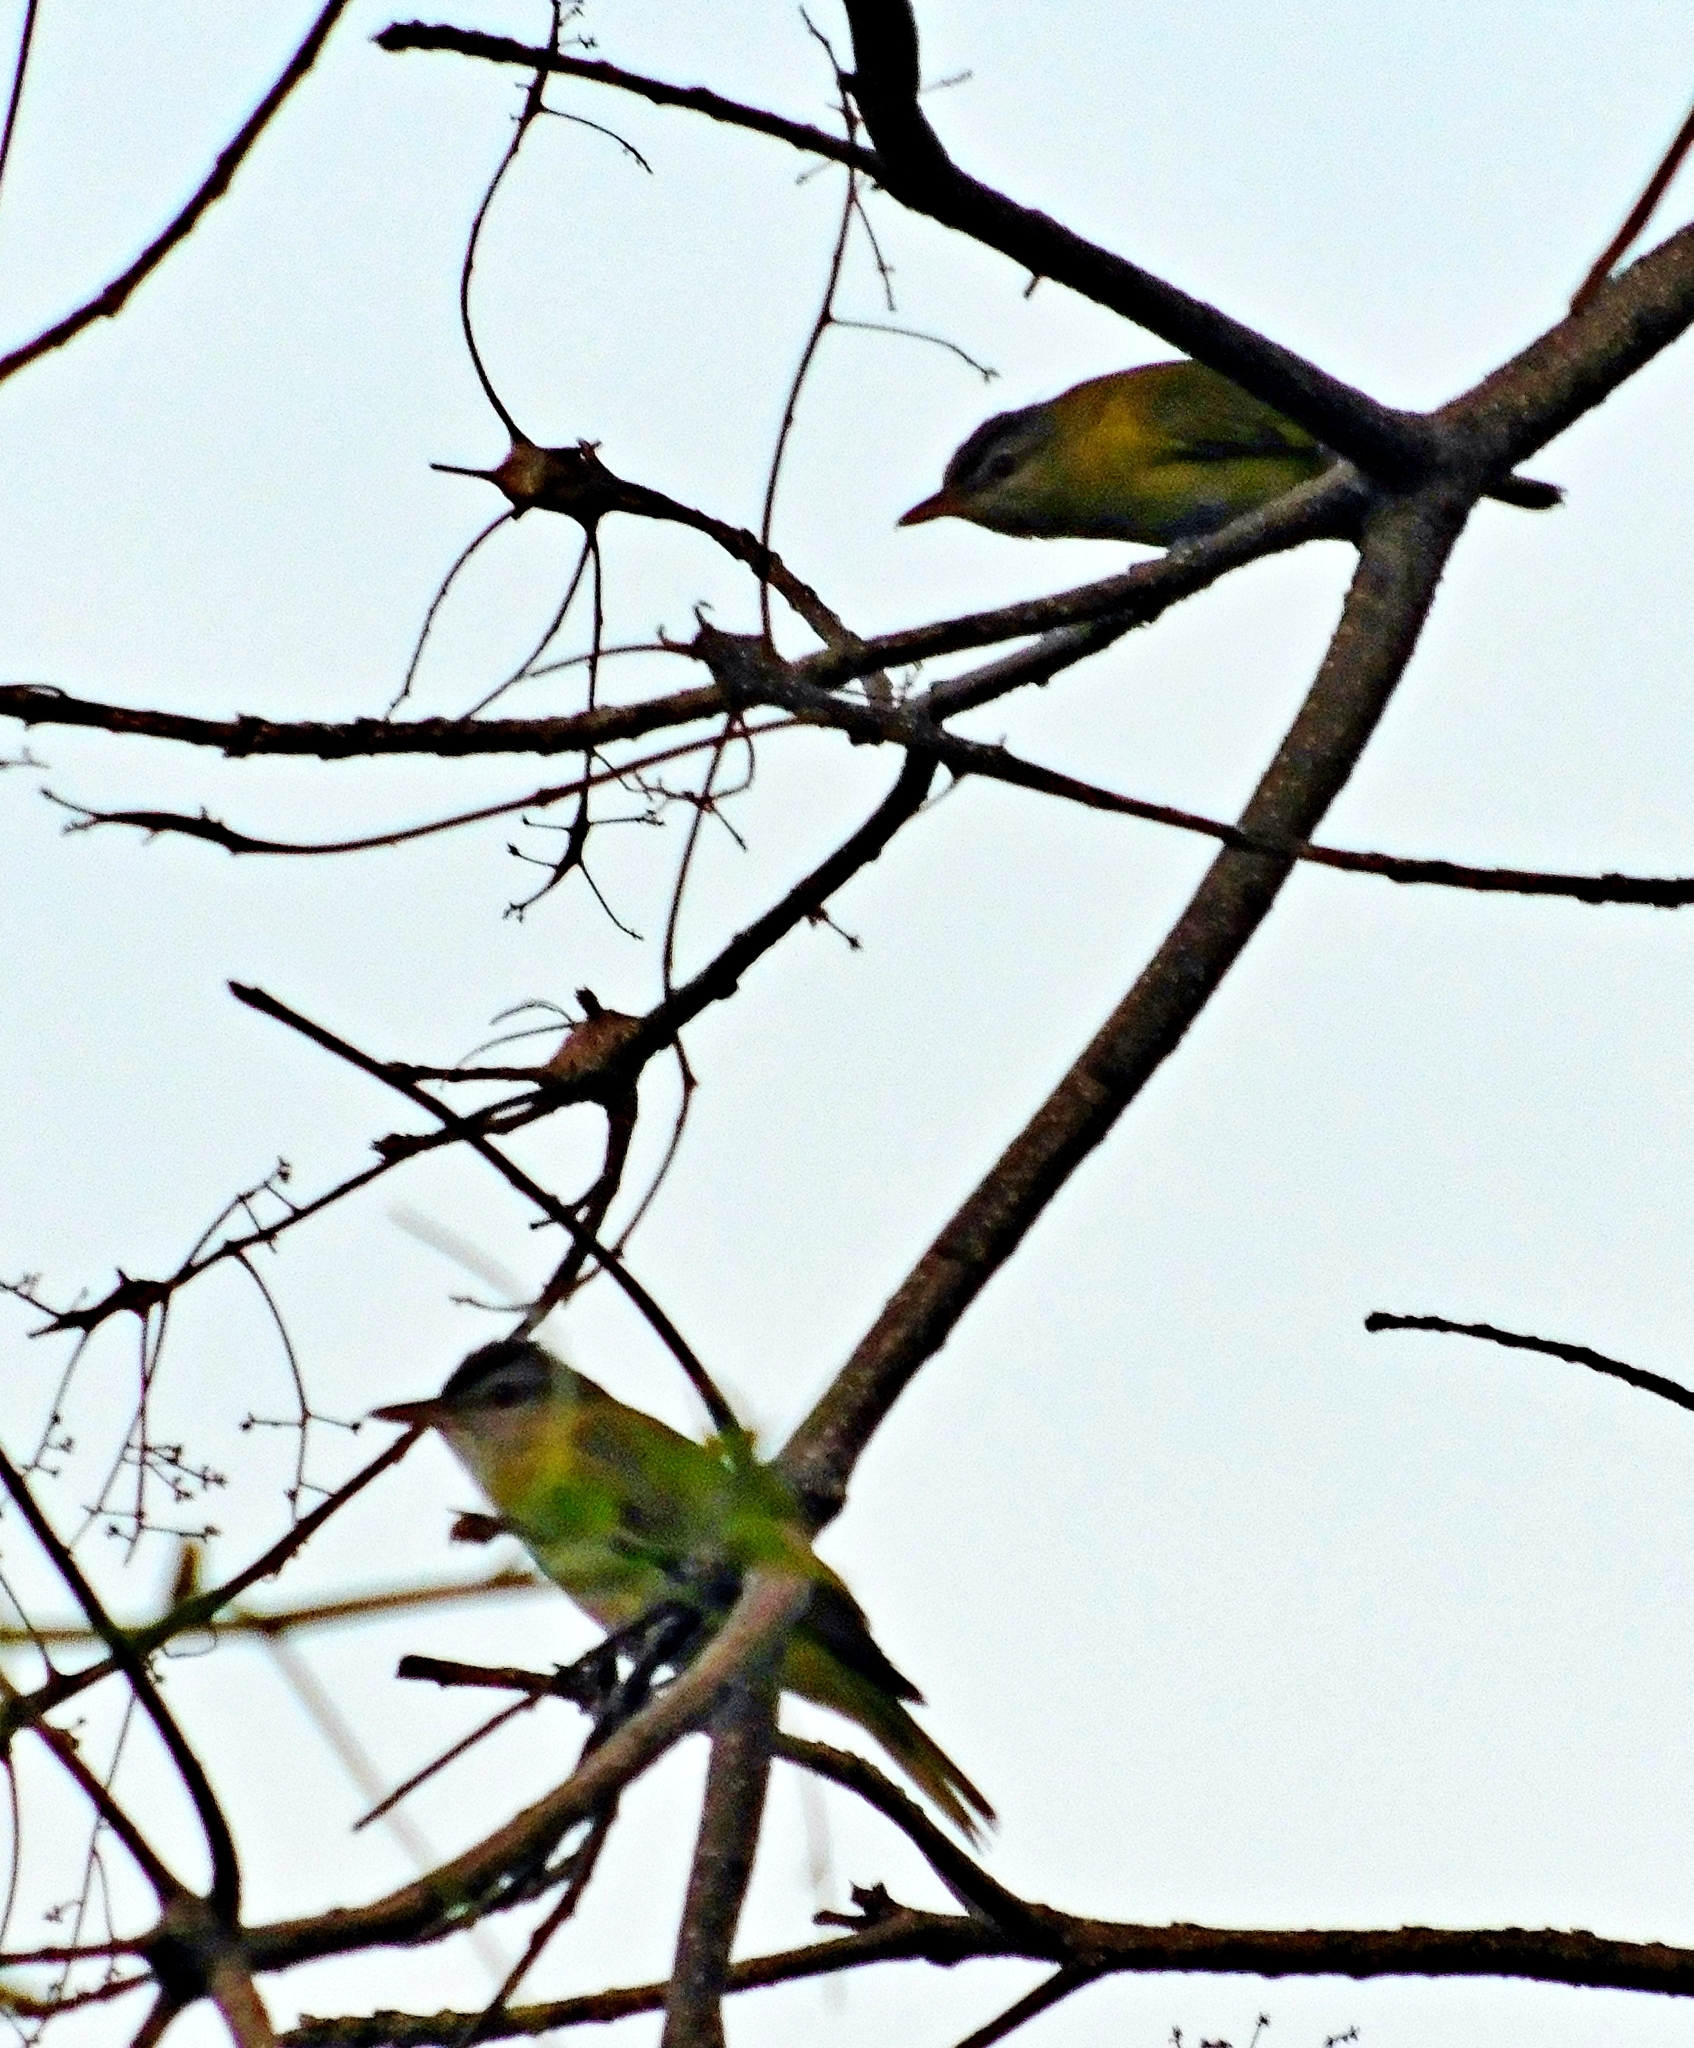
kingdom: Animalia
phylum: Chordata
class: Aves
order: Passeriformes
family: Vireonidae
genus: Vireo
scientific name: Vireo flavoviridis
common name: Yellow-green vireo
